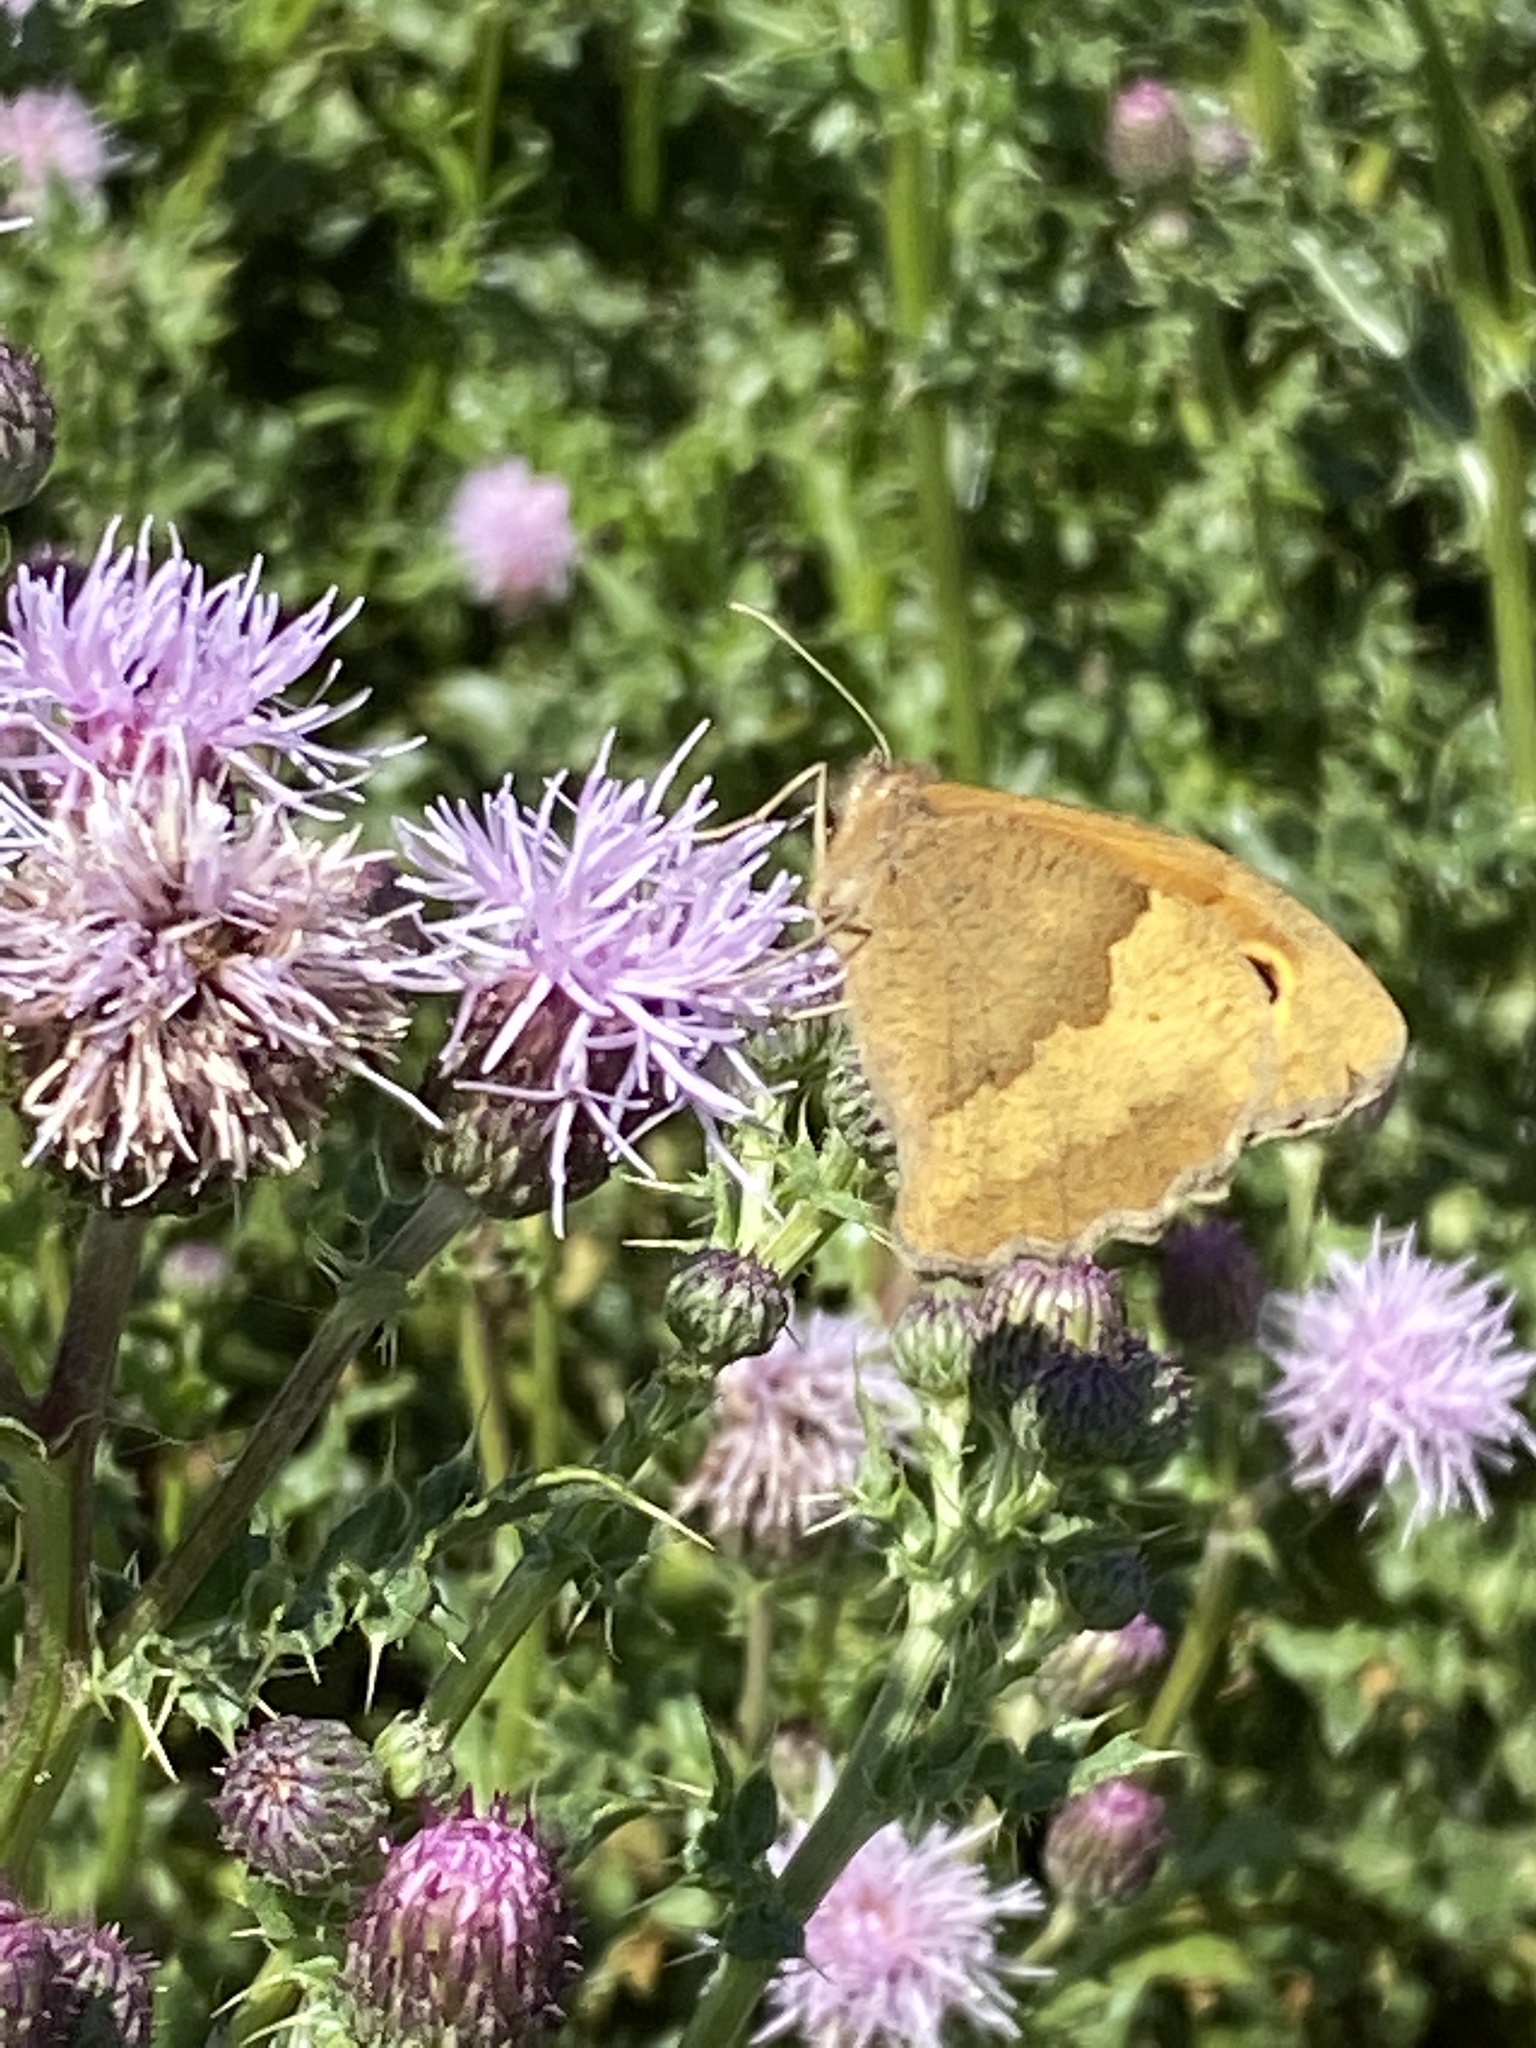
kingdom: Animalia
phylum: Arthropoda
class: Insecta
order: Lepidoptera
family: Nymphalidae
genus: Maniola
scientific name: Maniola jurtina
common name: Meadow brown
